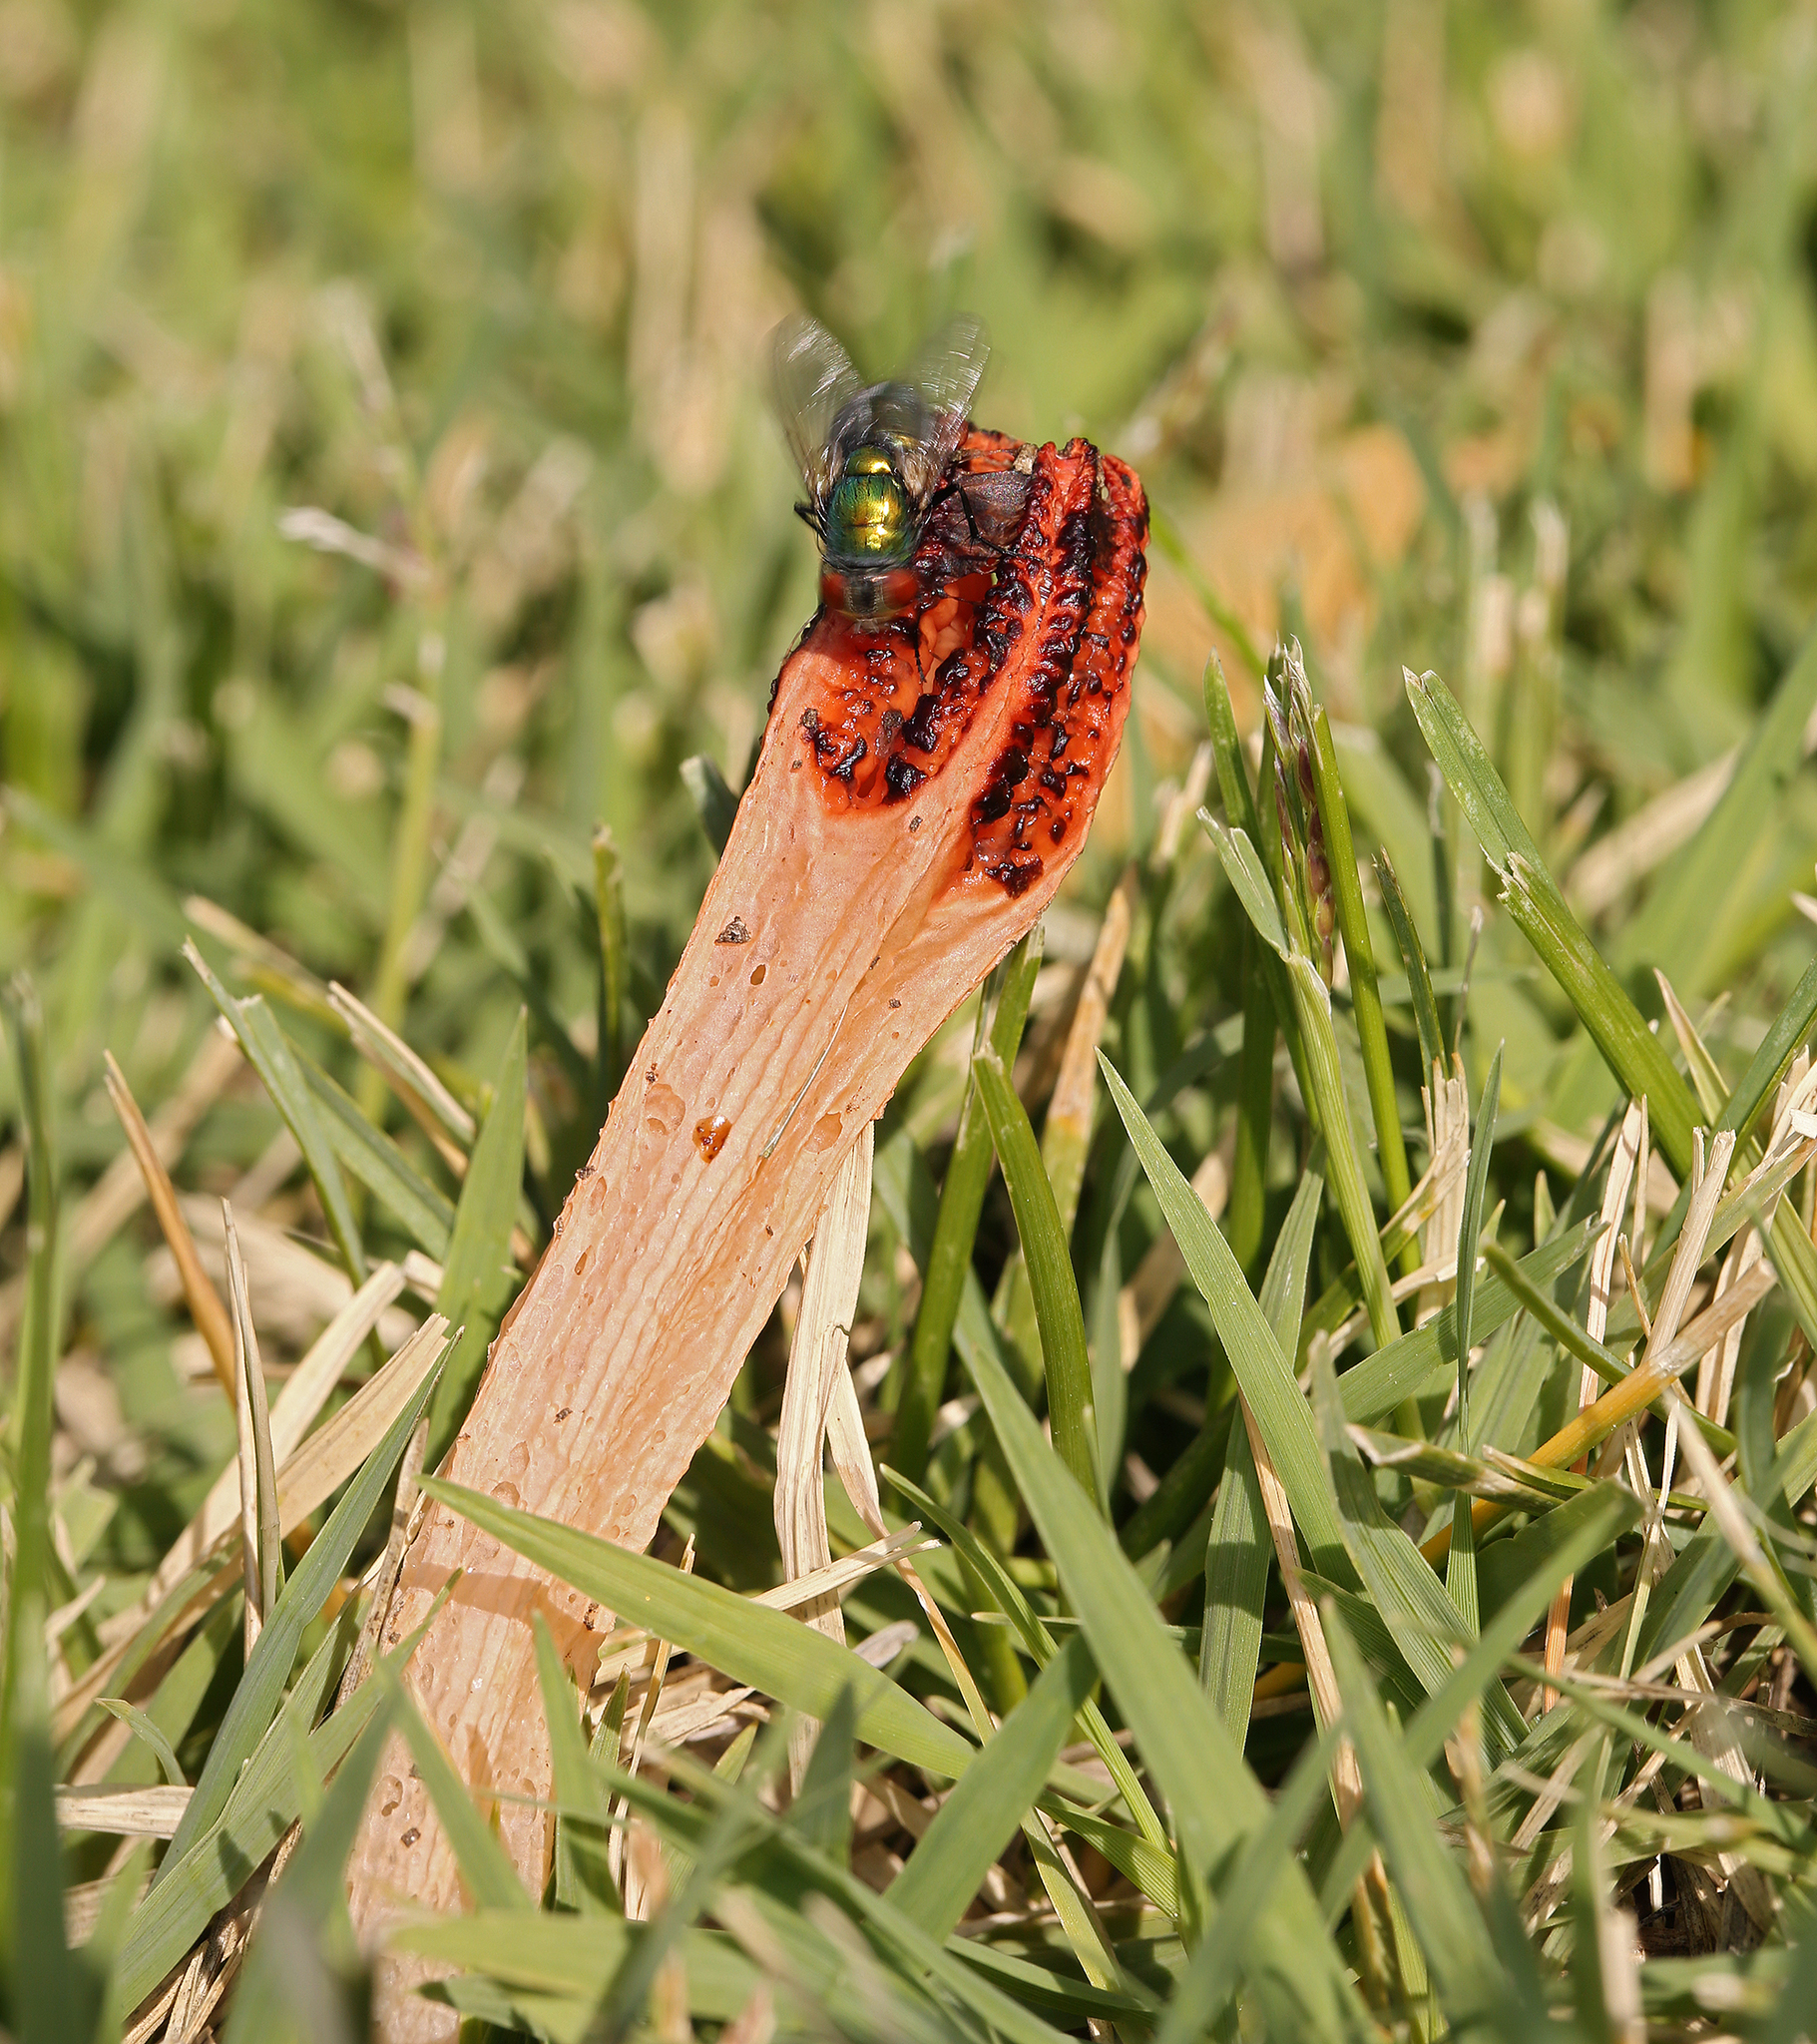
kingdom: Fungi
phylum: Basidiomycota
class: Agaricomycetes
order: Phallales
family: Phallaceae
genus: Lysurus
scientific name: Lysurus mokusin
